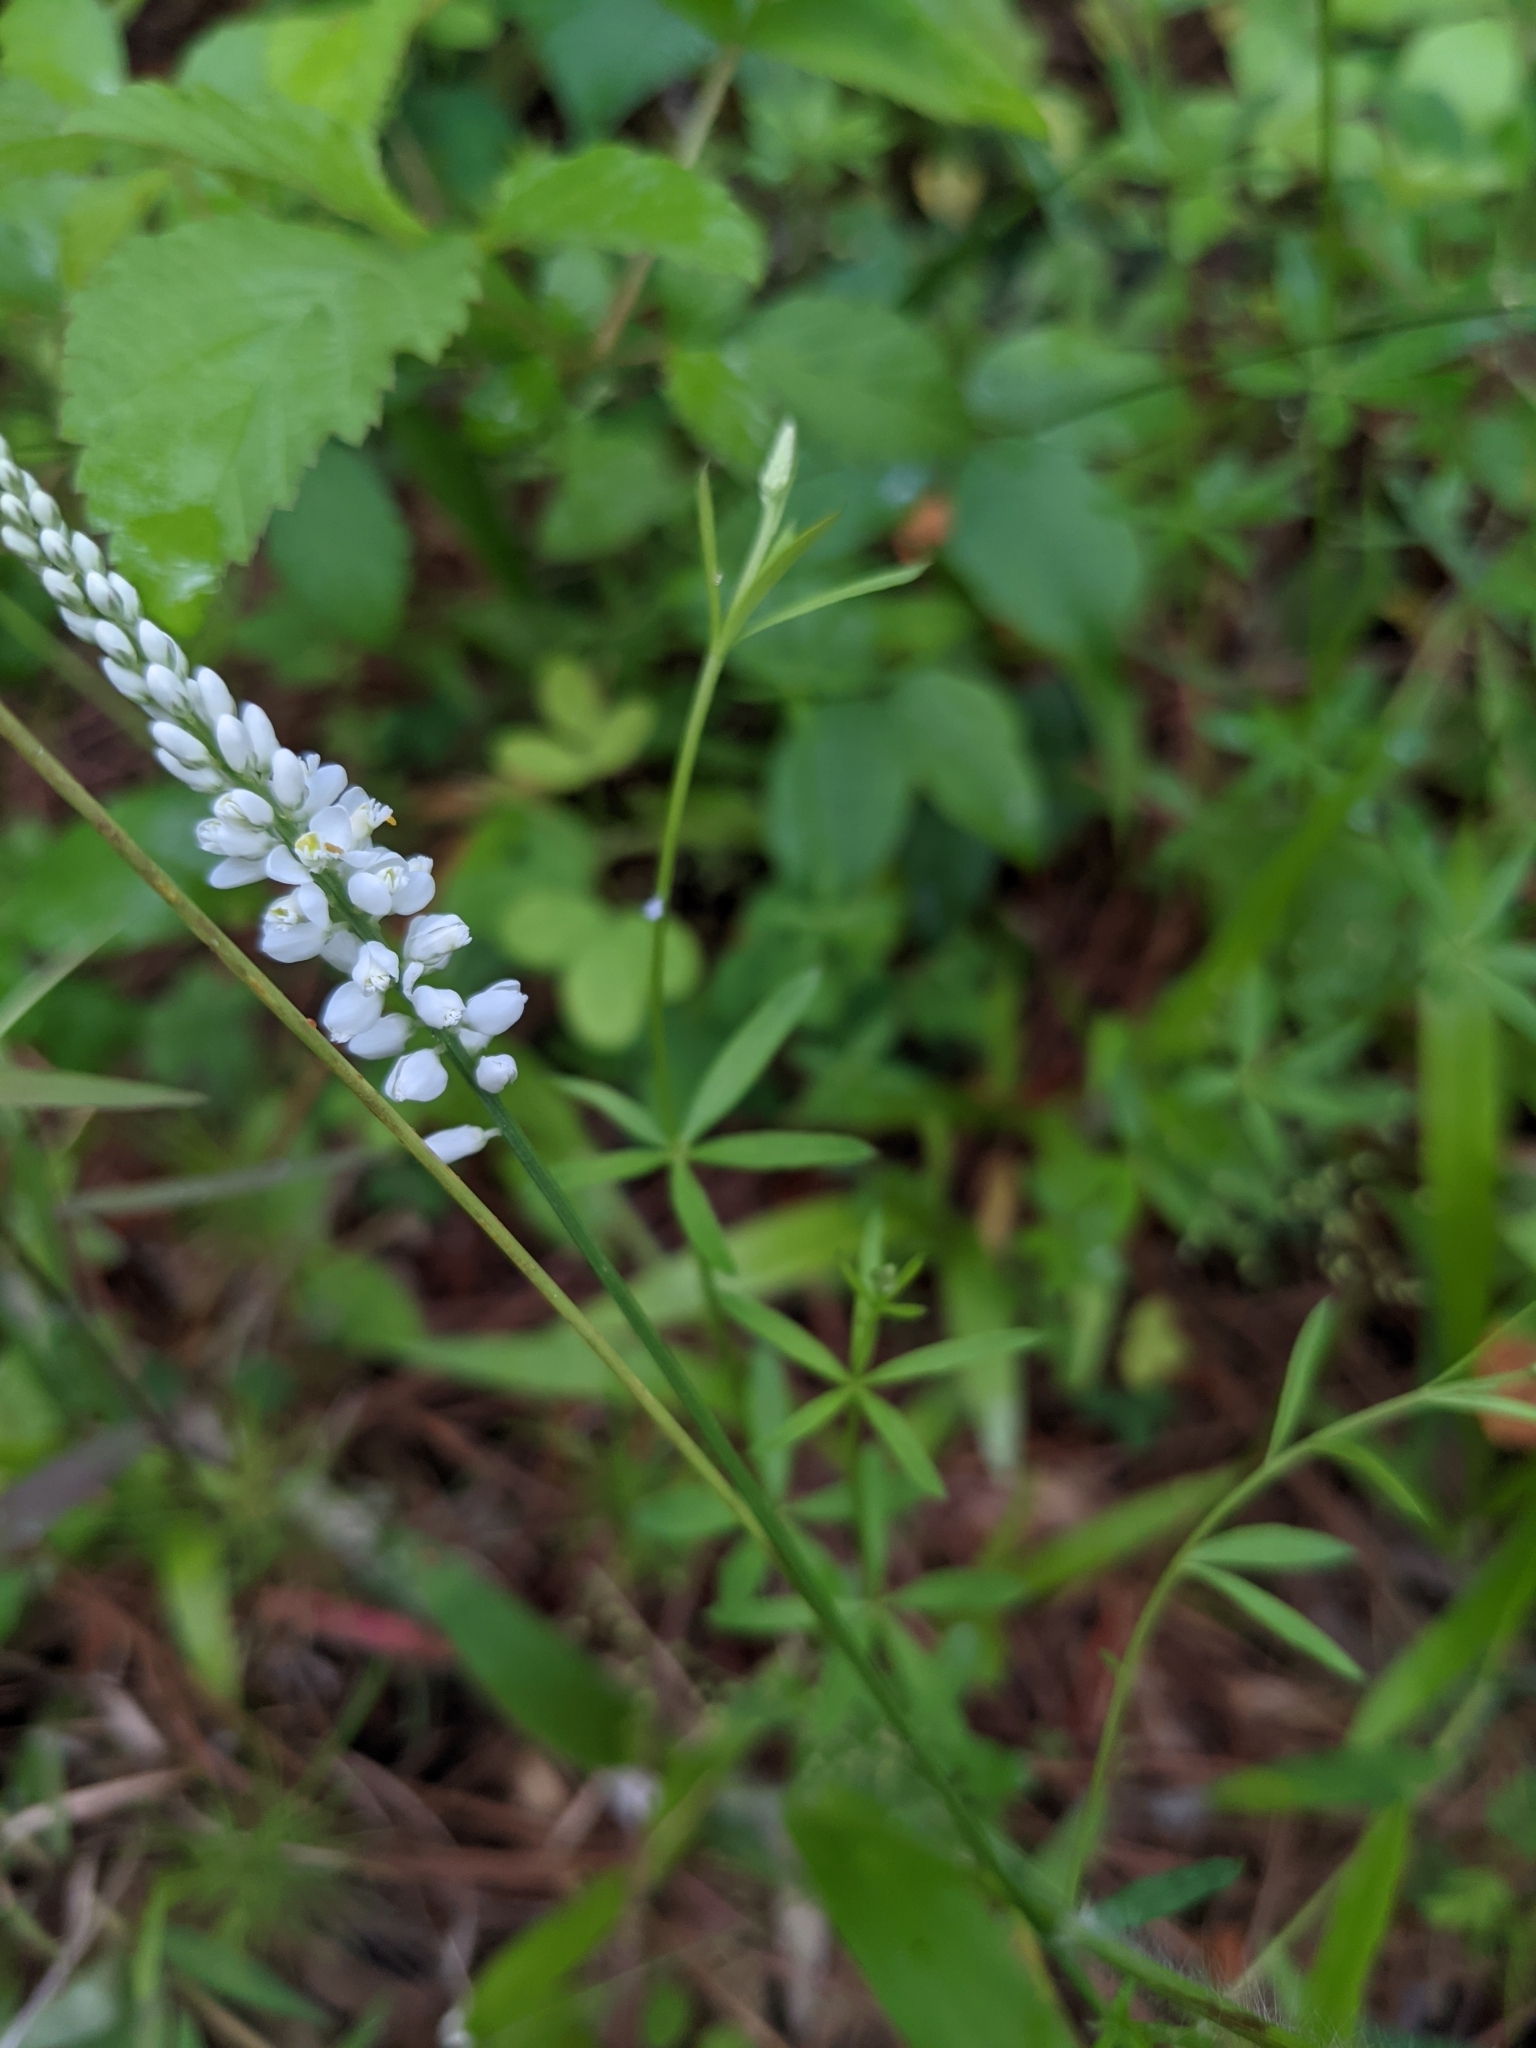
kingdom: Plantae
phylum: Tracheophyta
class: Magnoliopsida
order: Fabales
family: Polygalaceae
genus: Polygala
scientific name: Polygala boykinii
